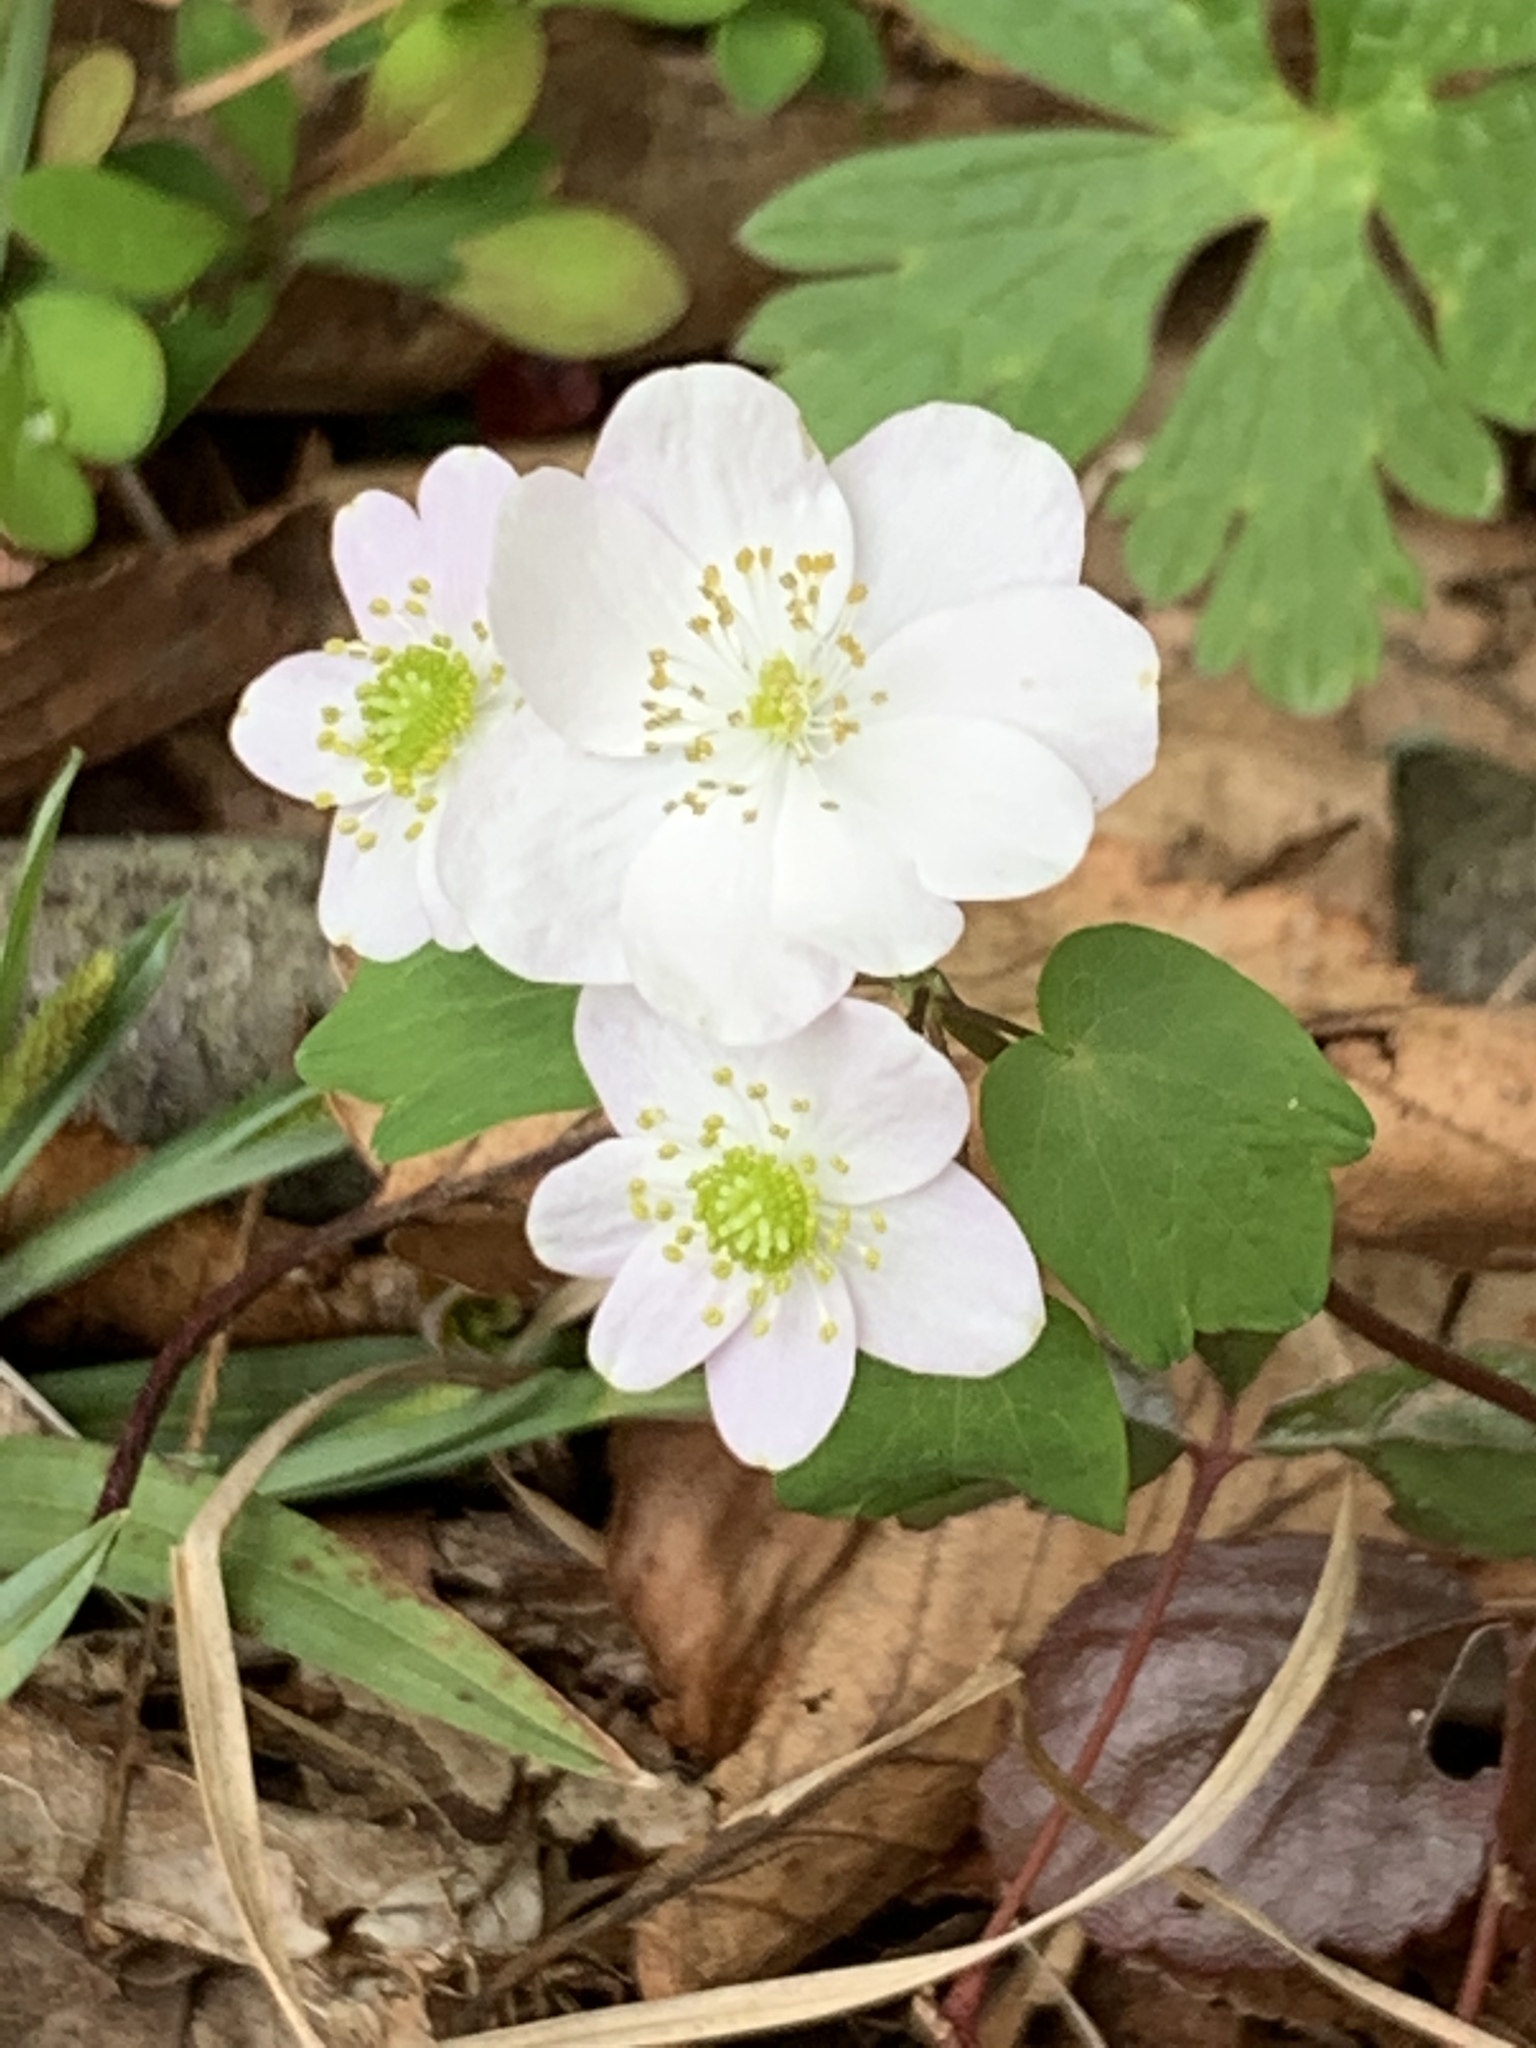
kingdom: Plantae
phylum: Tracheophyta
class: Magnoliopsida
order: Ranunculales
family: Ranunculaceae
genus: Thalictrum
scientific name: Thalictrum thalictroides
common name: Rue-anemone
